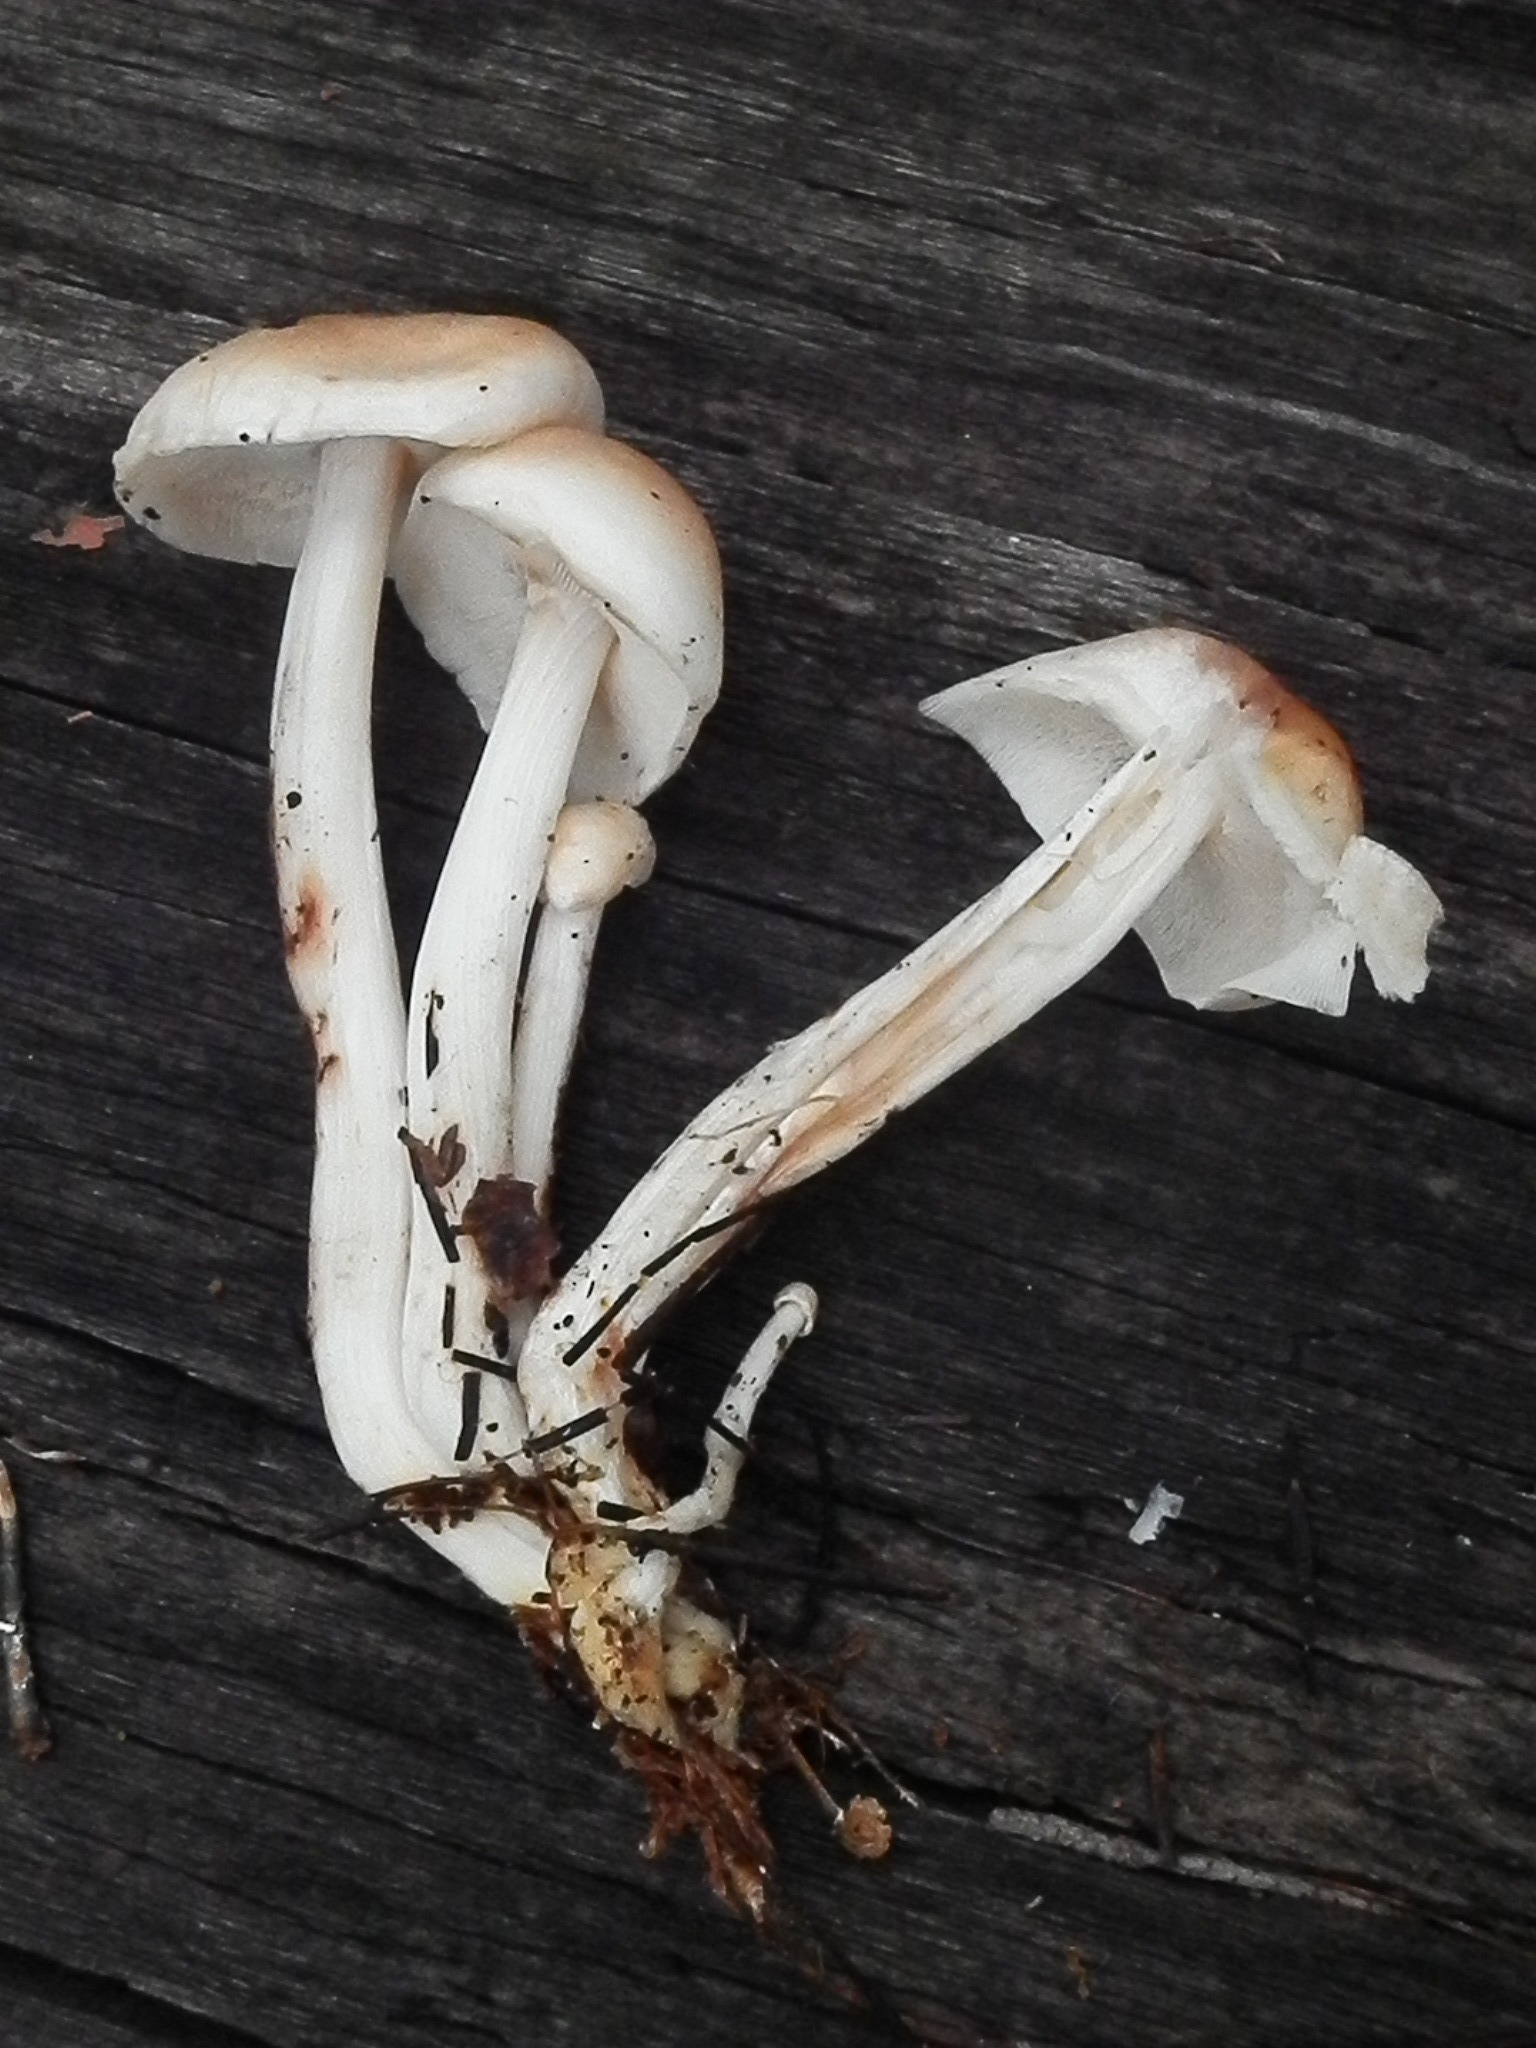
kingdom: Fungi
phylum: Basidiomycota
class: Agaricomycetes
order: Agaricales
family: Omphalotaceae
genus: Rhodocollybia
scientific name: Rhodocollybia maculata
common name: Spotted tough-shank
